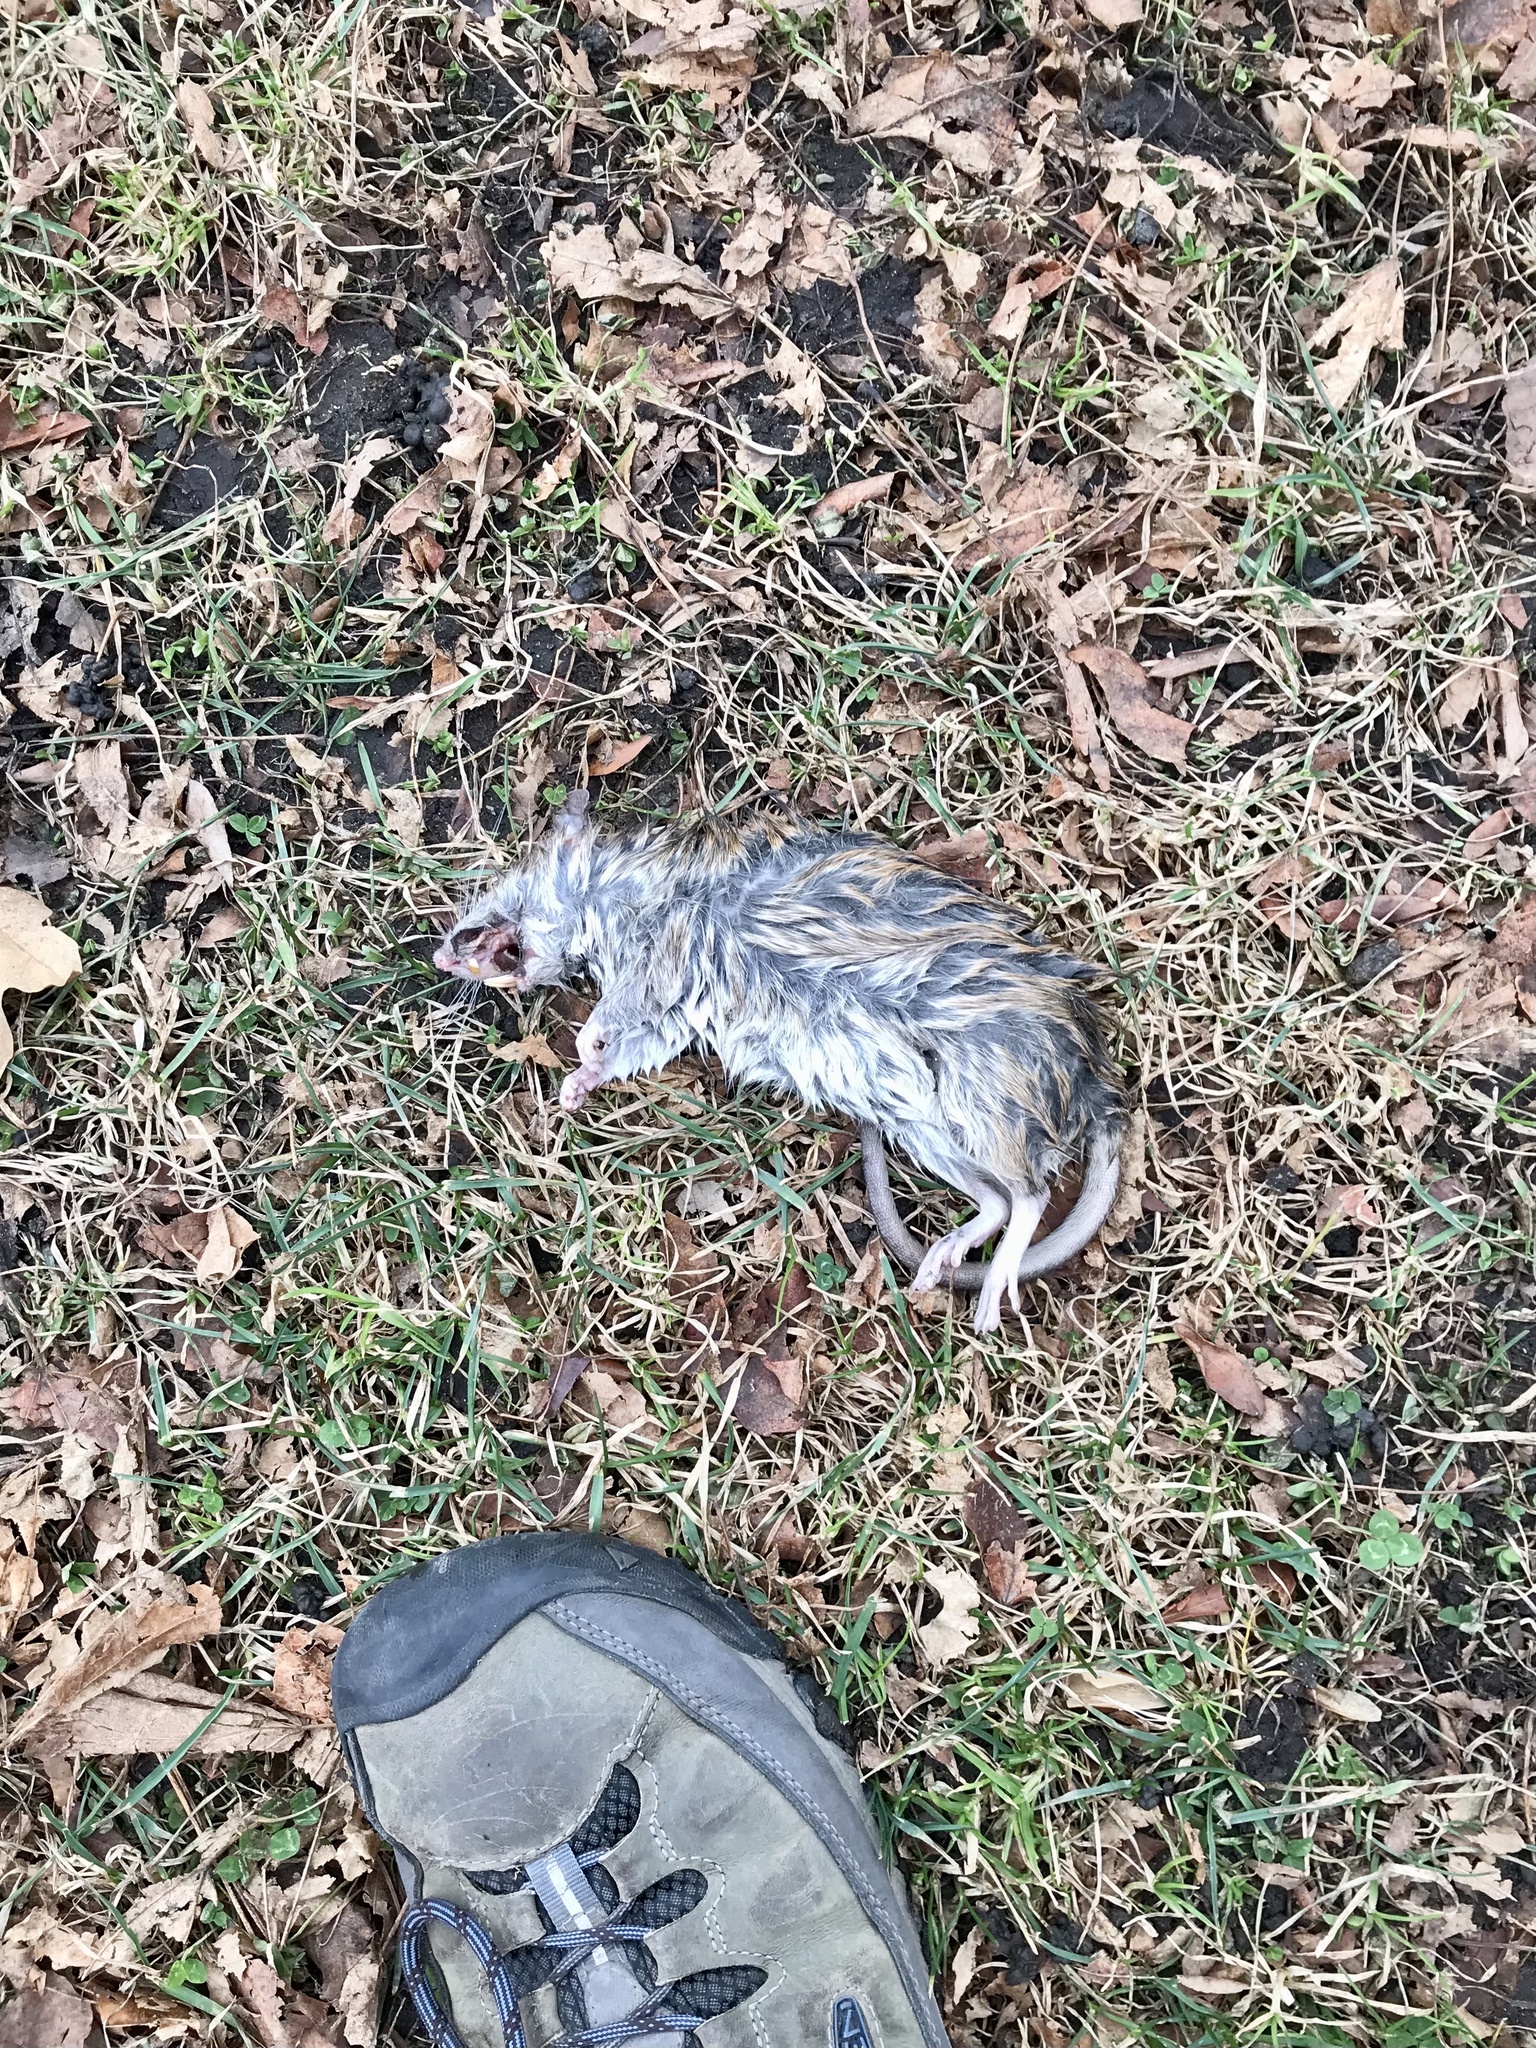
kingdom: Animalia
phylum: Chordata
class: Mammalia
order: Rodentia
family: Muridae
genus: Rattus
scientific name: Rattus norvegicus
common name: Brown rat
